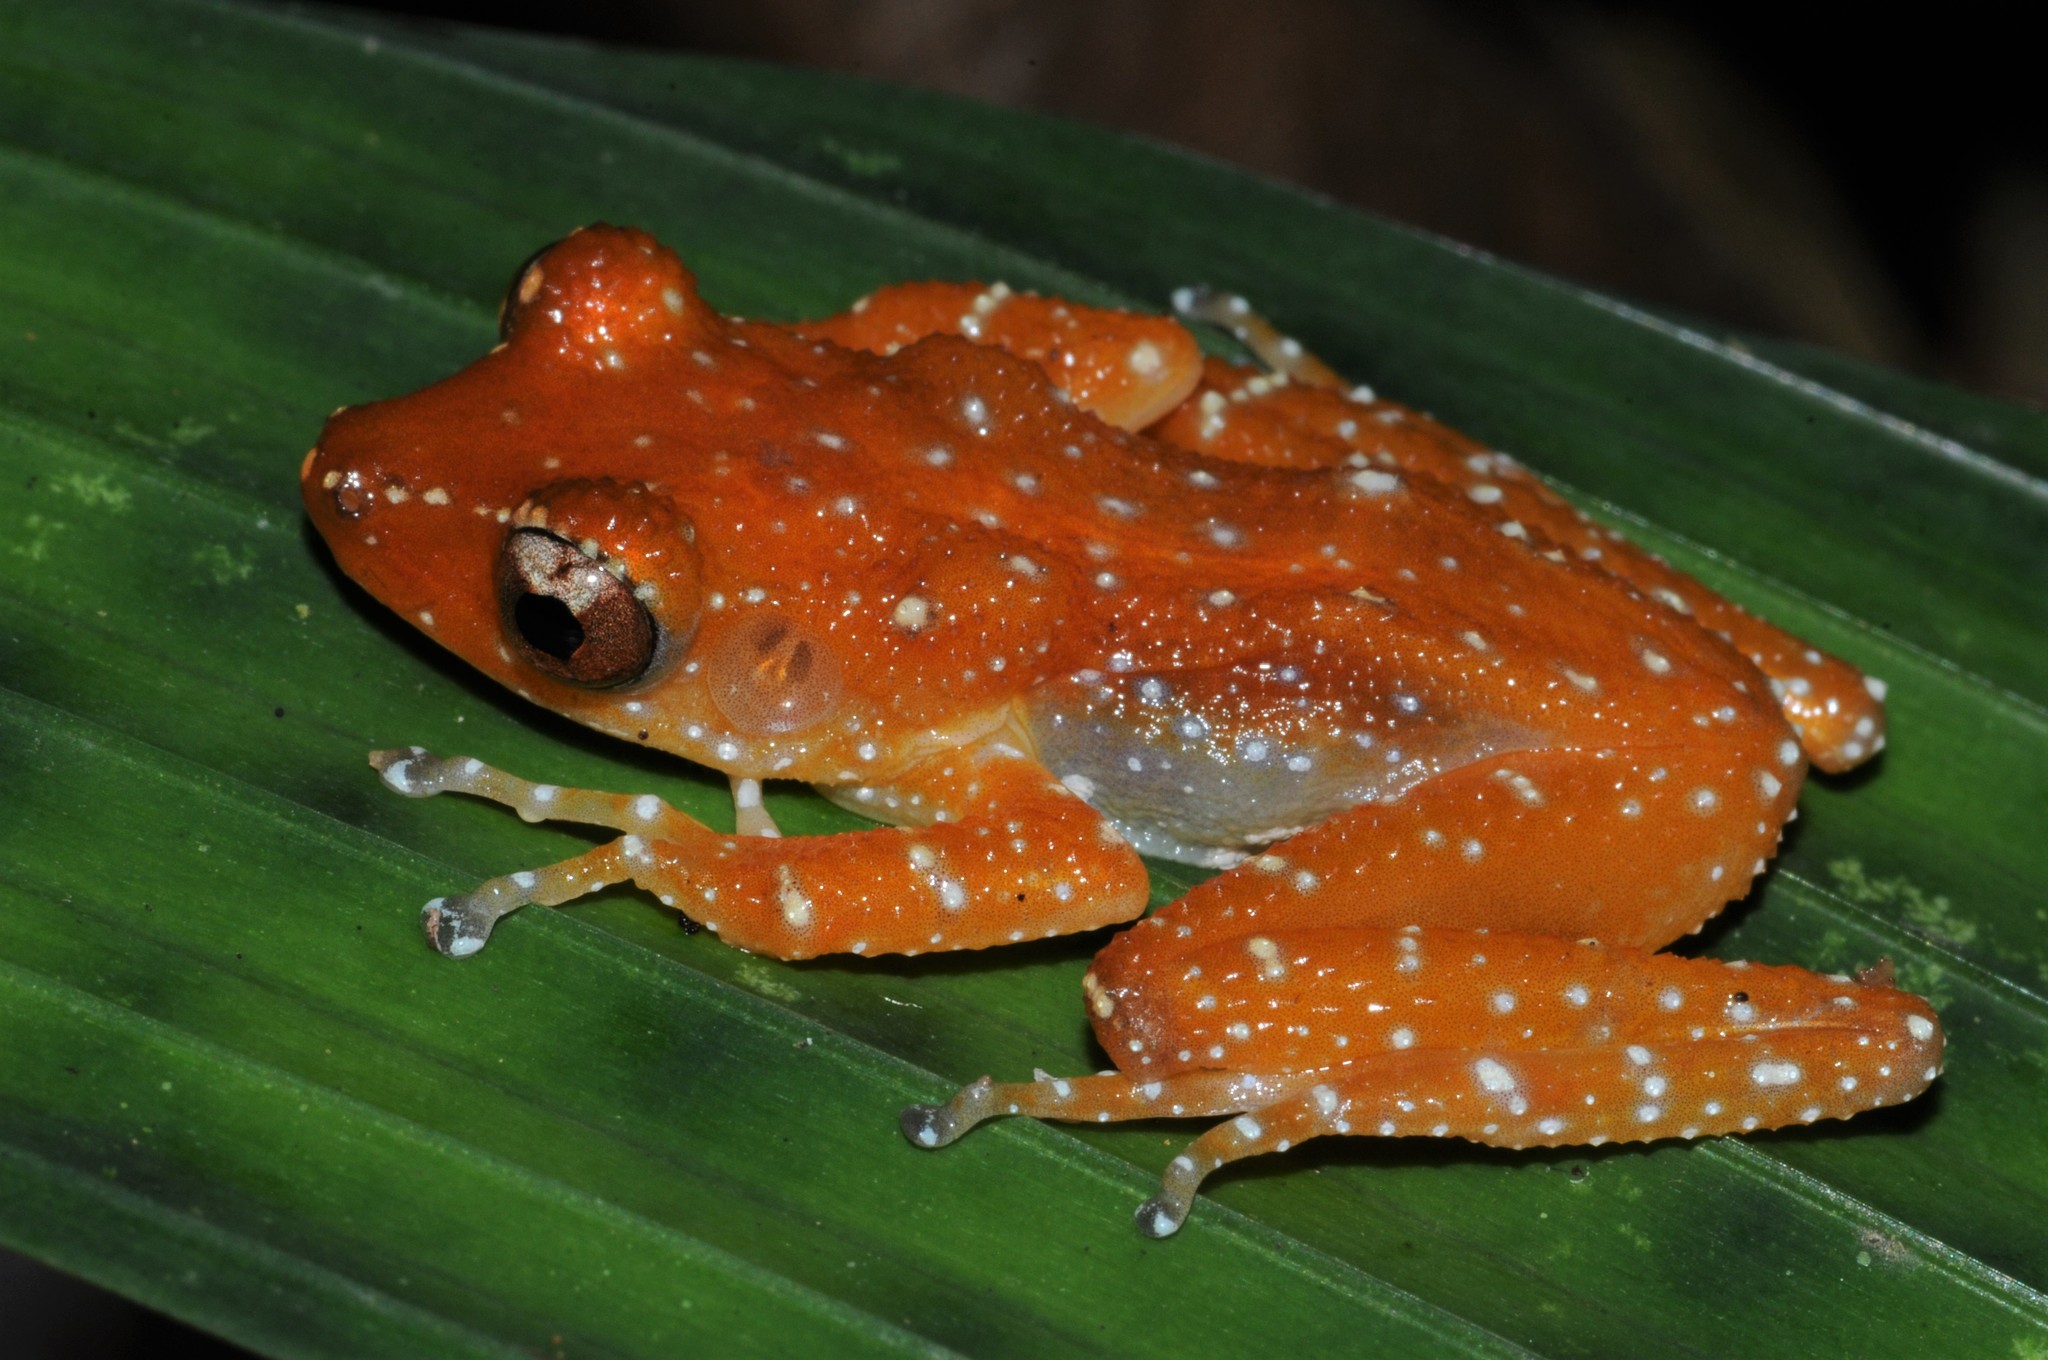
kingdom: Animalia
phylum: Chordata
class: Amphibia
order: Anura
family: Rhacophoridae
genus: Nyctixalus
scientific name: Nyctixalus pictus
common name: White-spotted tree frog
